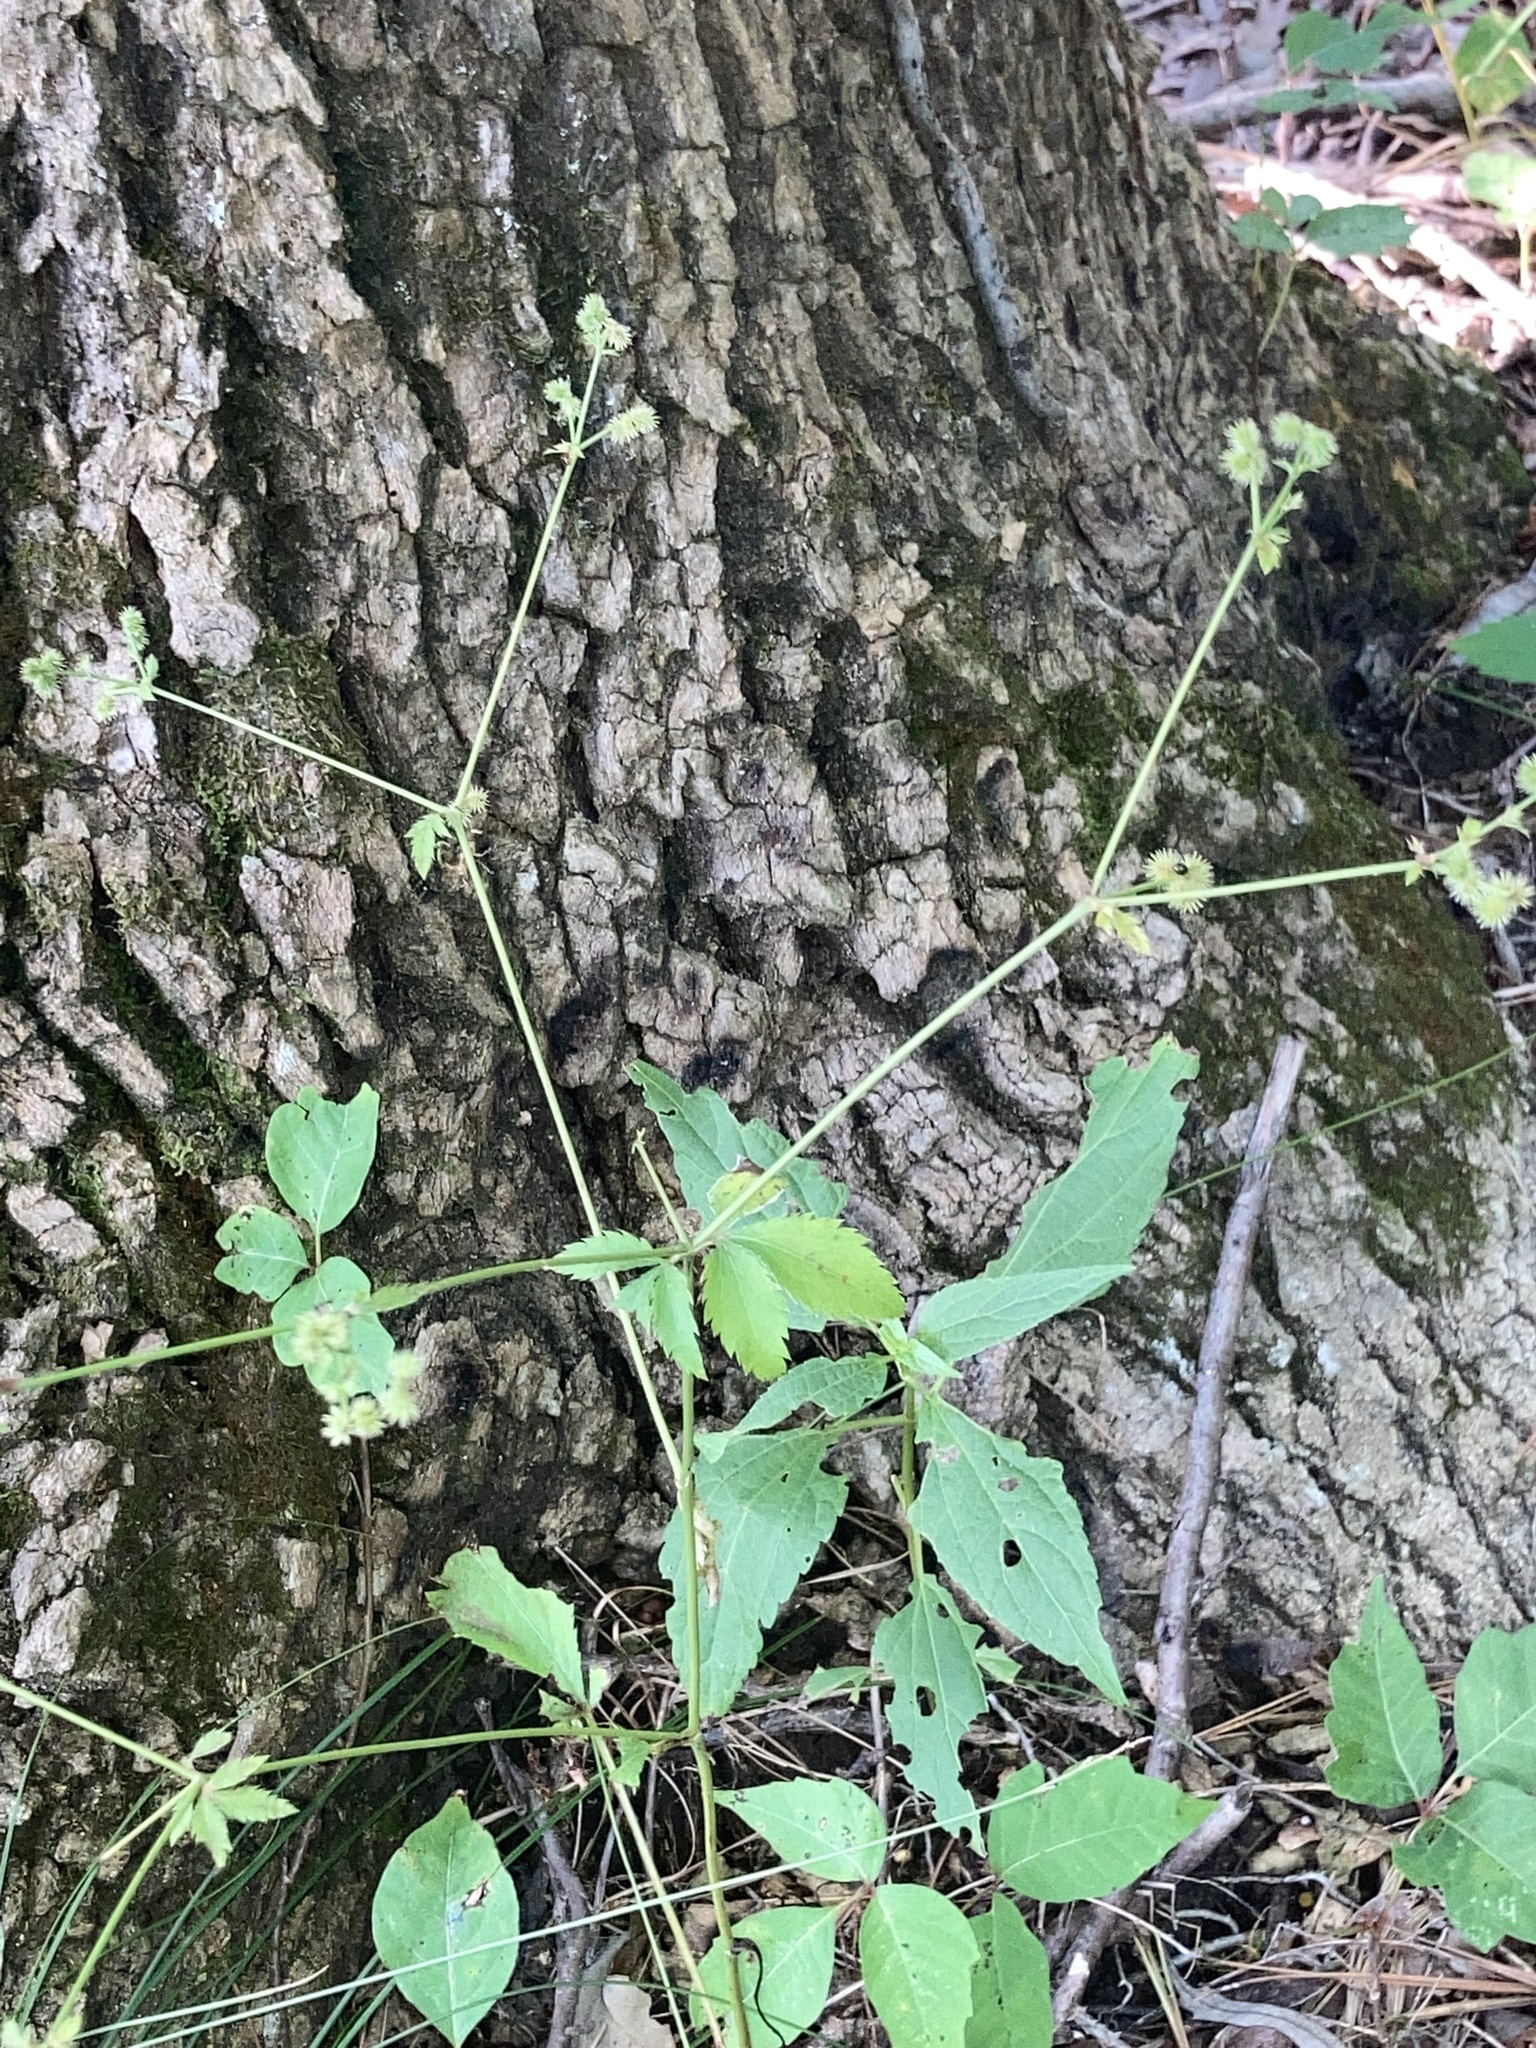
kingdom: Plantae
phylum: Tracheophyta
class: Magnoliopsida
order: Apiales
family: Apiaceae
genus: Sanicula
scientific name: Sanicula canadensis
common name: Canada sanicle
